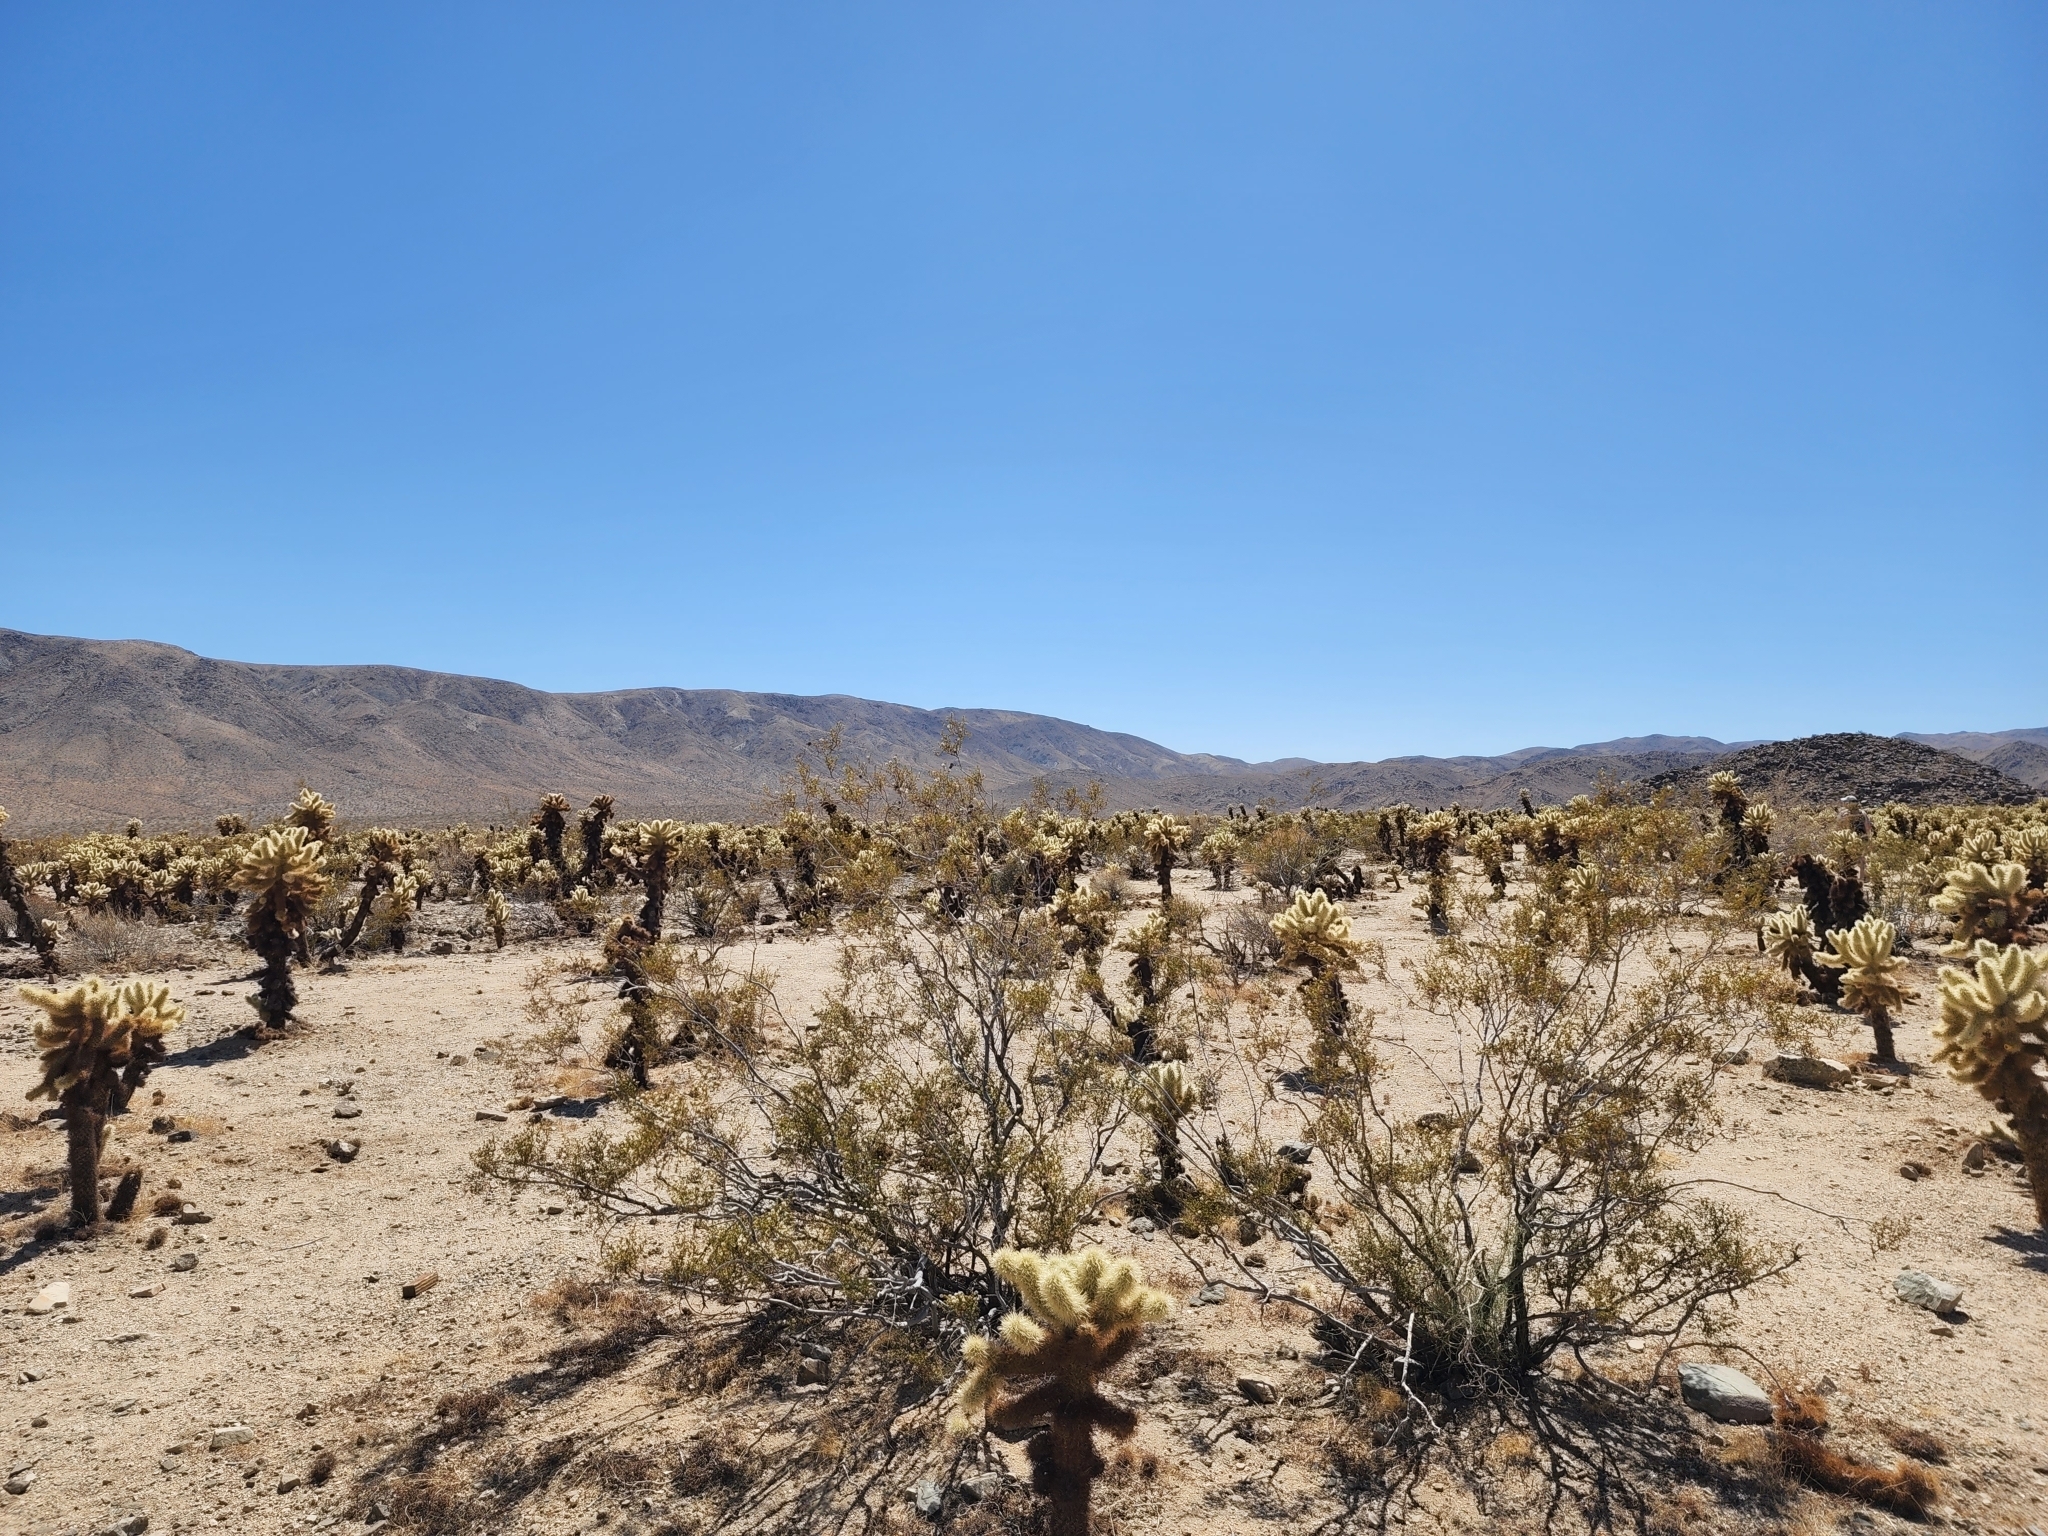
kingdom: Plantae
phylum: Tracheophyta
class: Magnoliopsida
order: Caryophyllales
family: Cactaceae
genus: Cylindropuntia
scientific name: Cylindropuntia fosbergii
